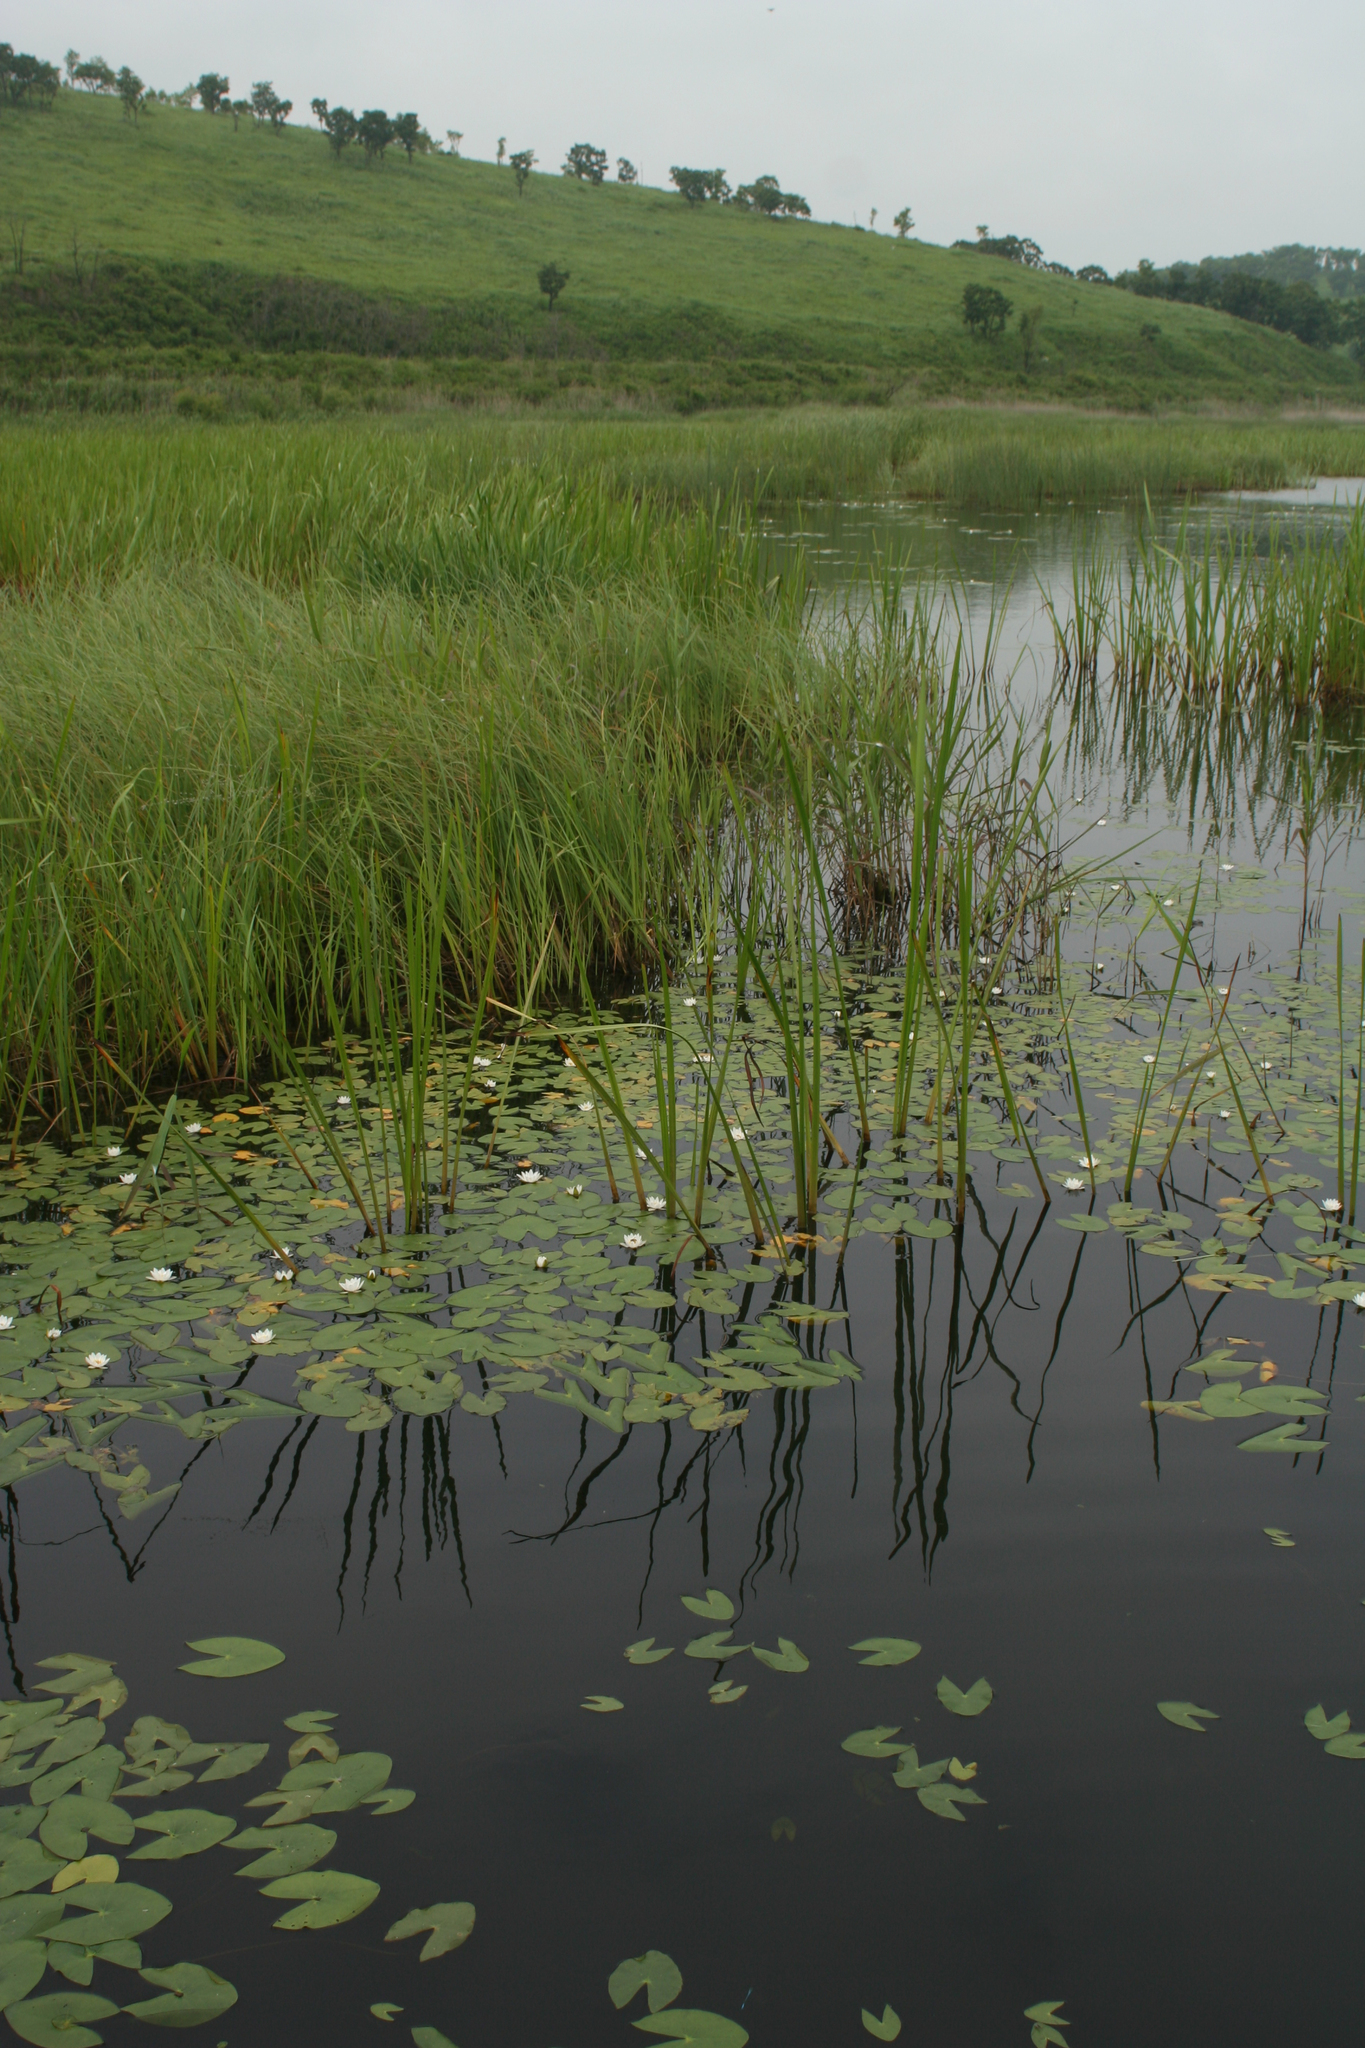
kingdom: Plantae
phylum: Tracheophyta
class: Magnoliopsida
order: Nymphaeales
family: Nymphaeaceae
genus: Nymphaea
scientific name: Nymphaea tetragona
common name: Pygmy water-lily
